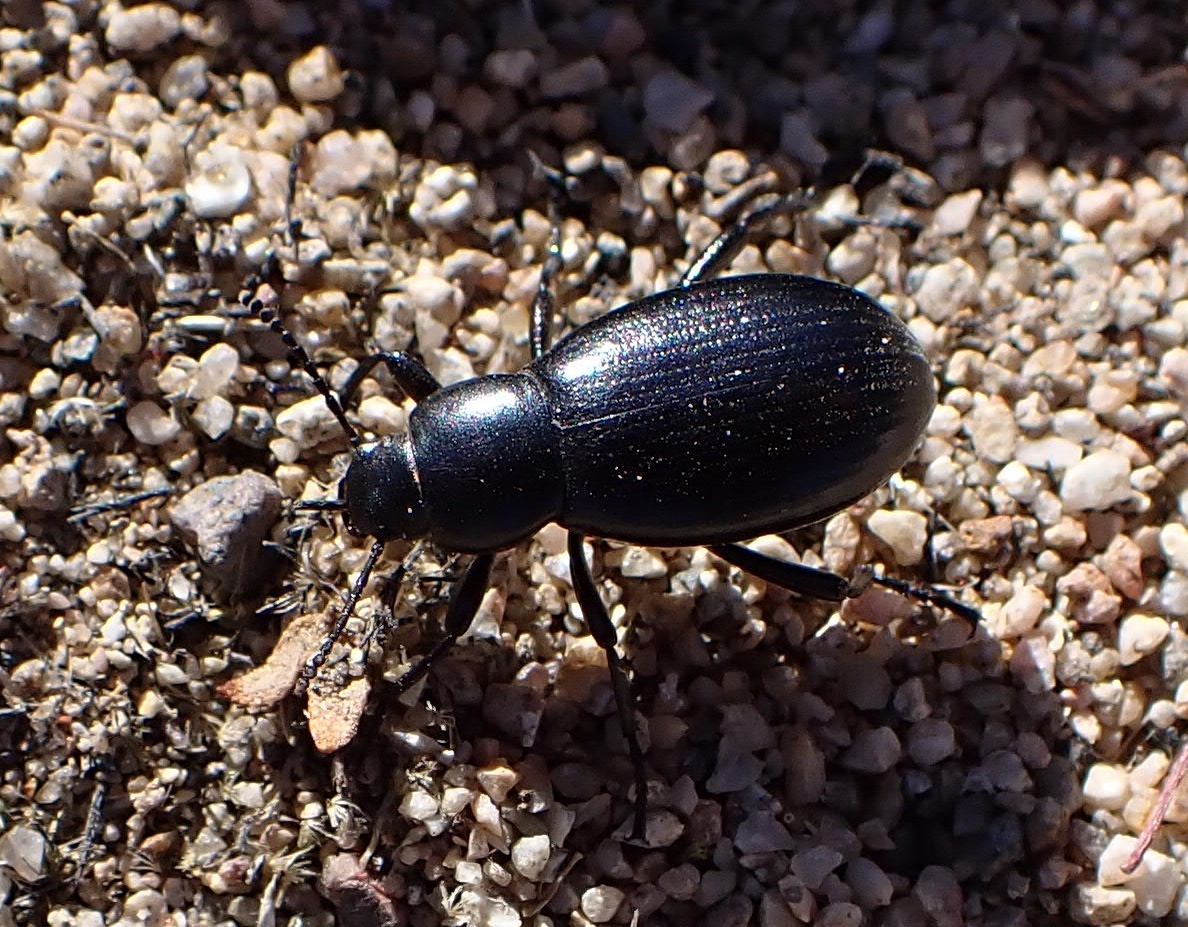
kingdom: Animalia
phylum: Arthropoda
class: Insecta
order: Coleoptera
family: Tenebrionidae
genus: Eleodes
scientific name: Eleodes carbonaria
